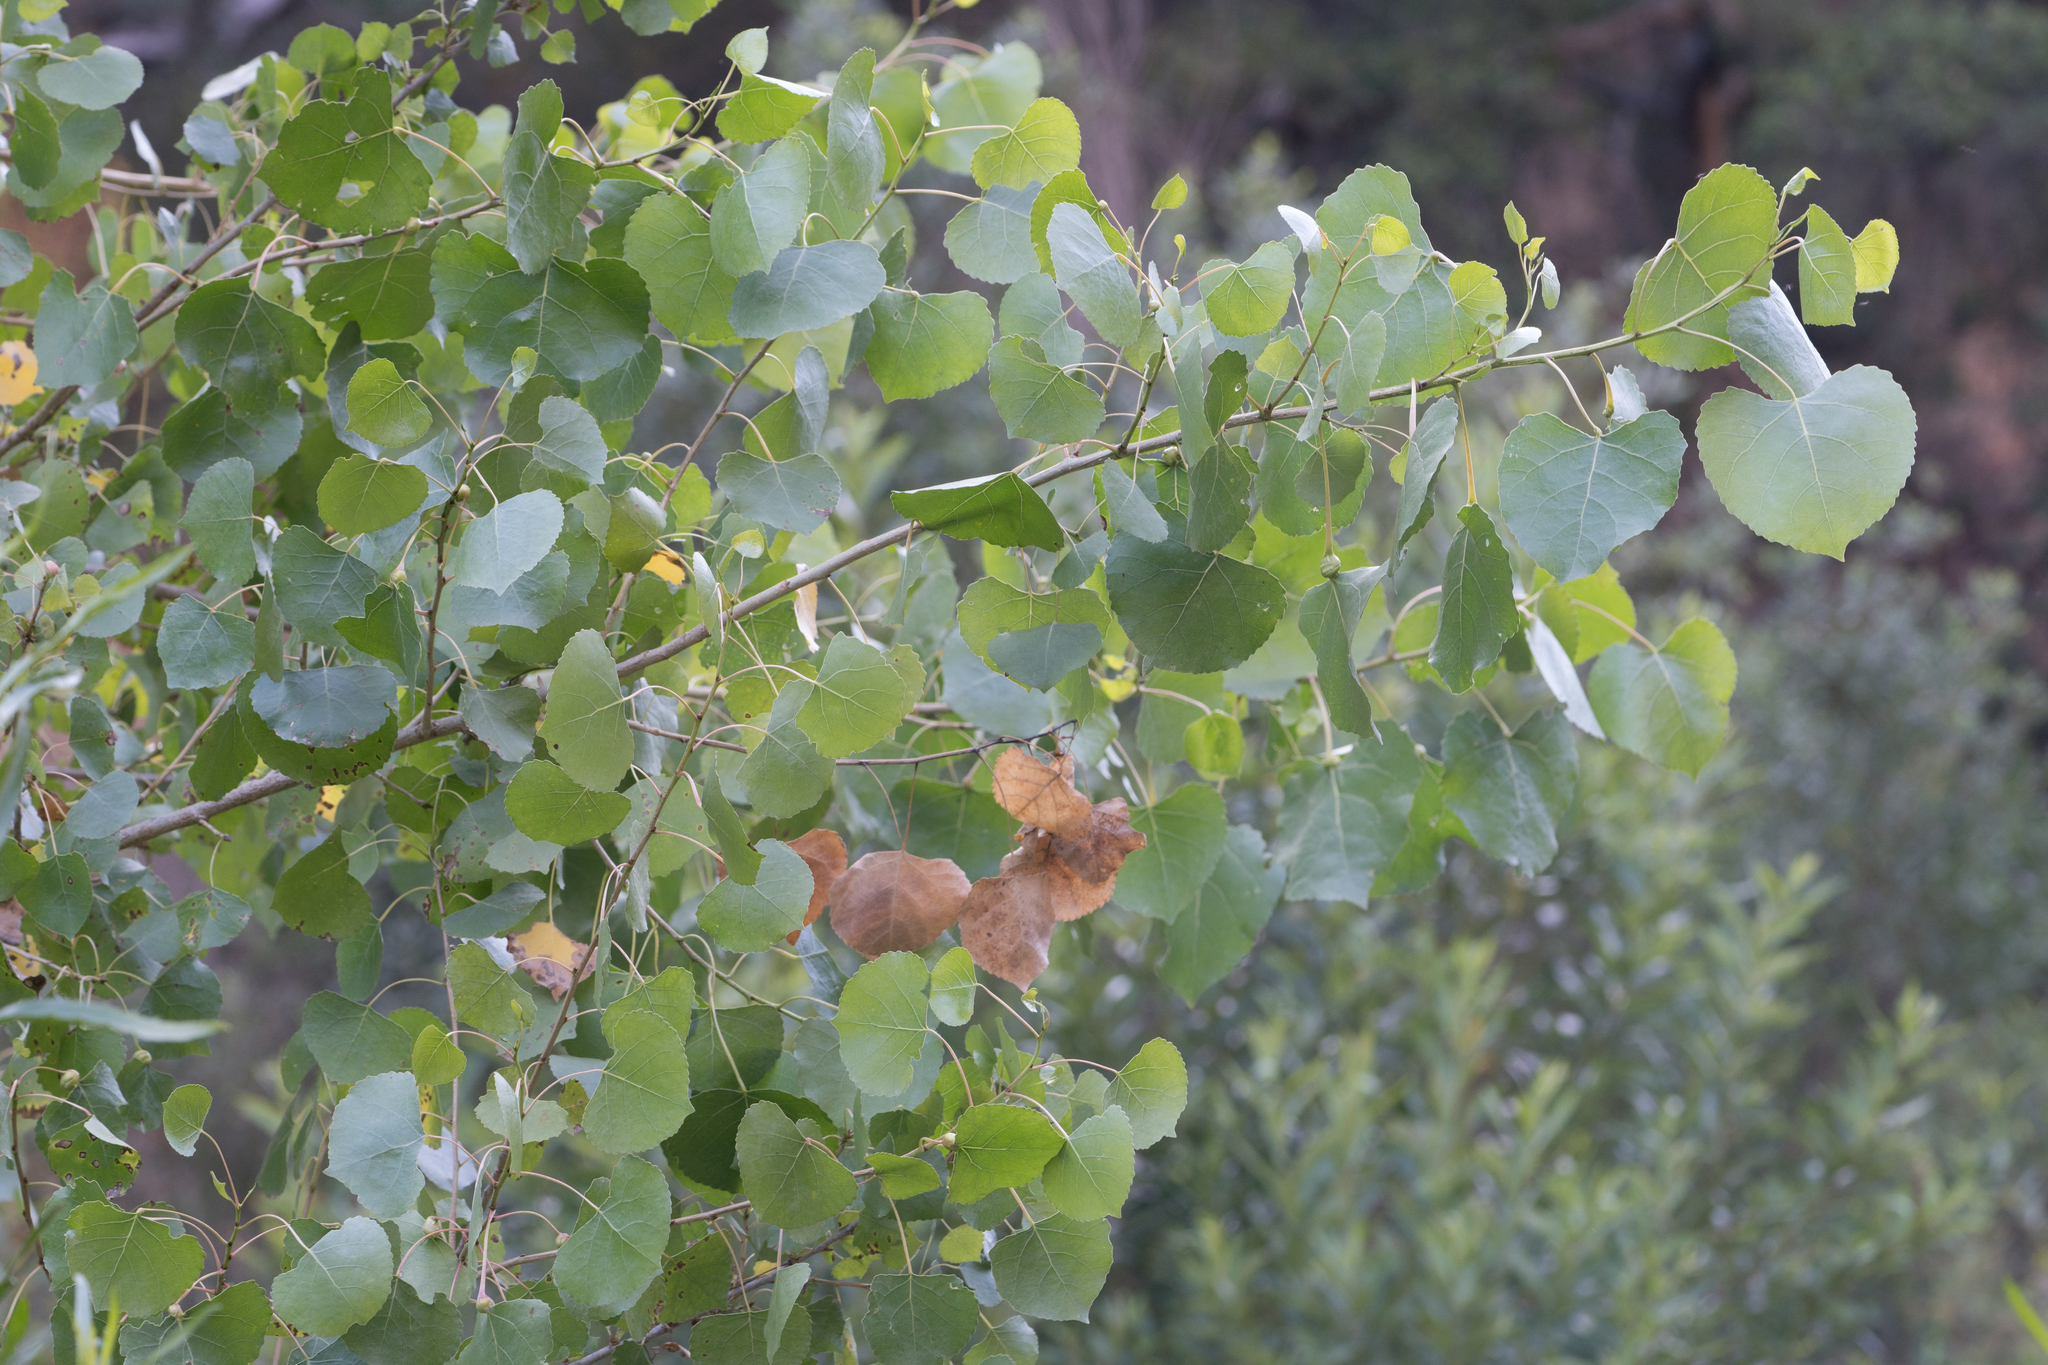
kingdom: Plantae
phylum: Tracheophyta
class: Magnoliopsida
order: Malpighiales
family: Salicaceae
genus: Populus
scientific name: Populus fremontii
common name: Fremont's cottonwood
